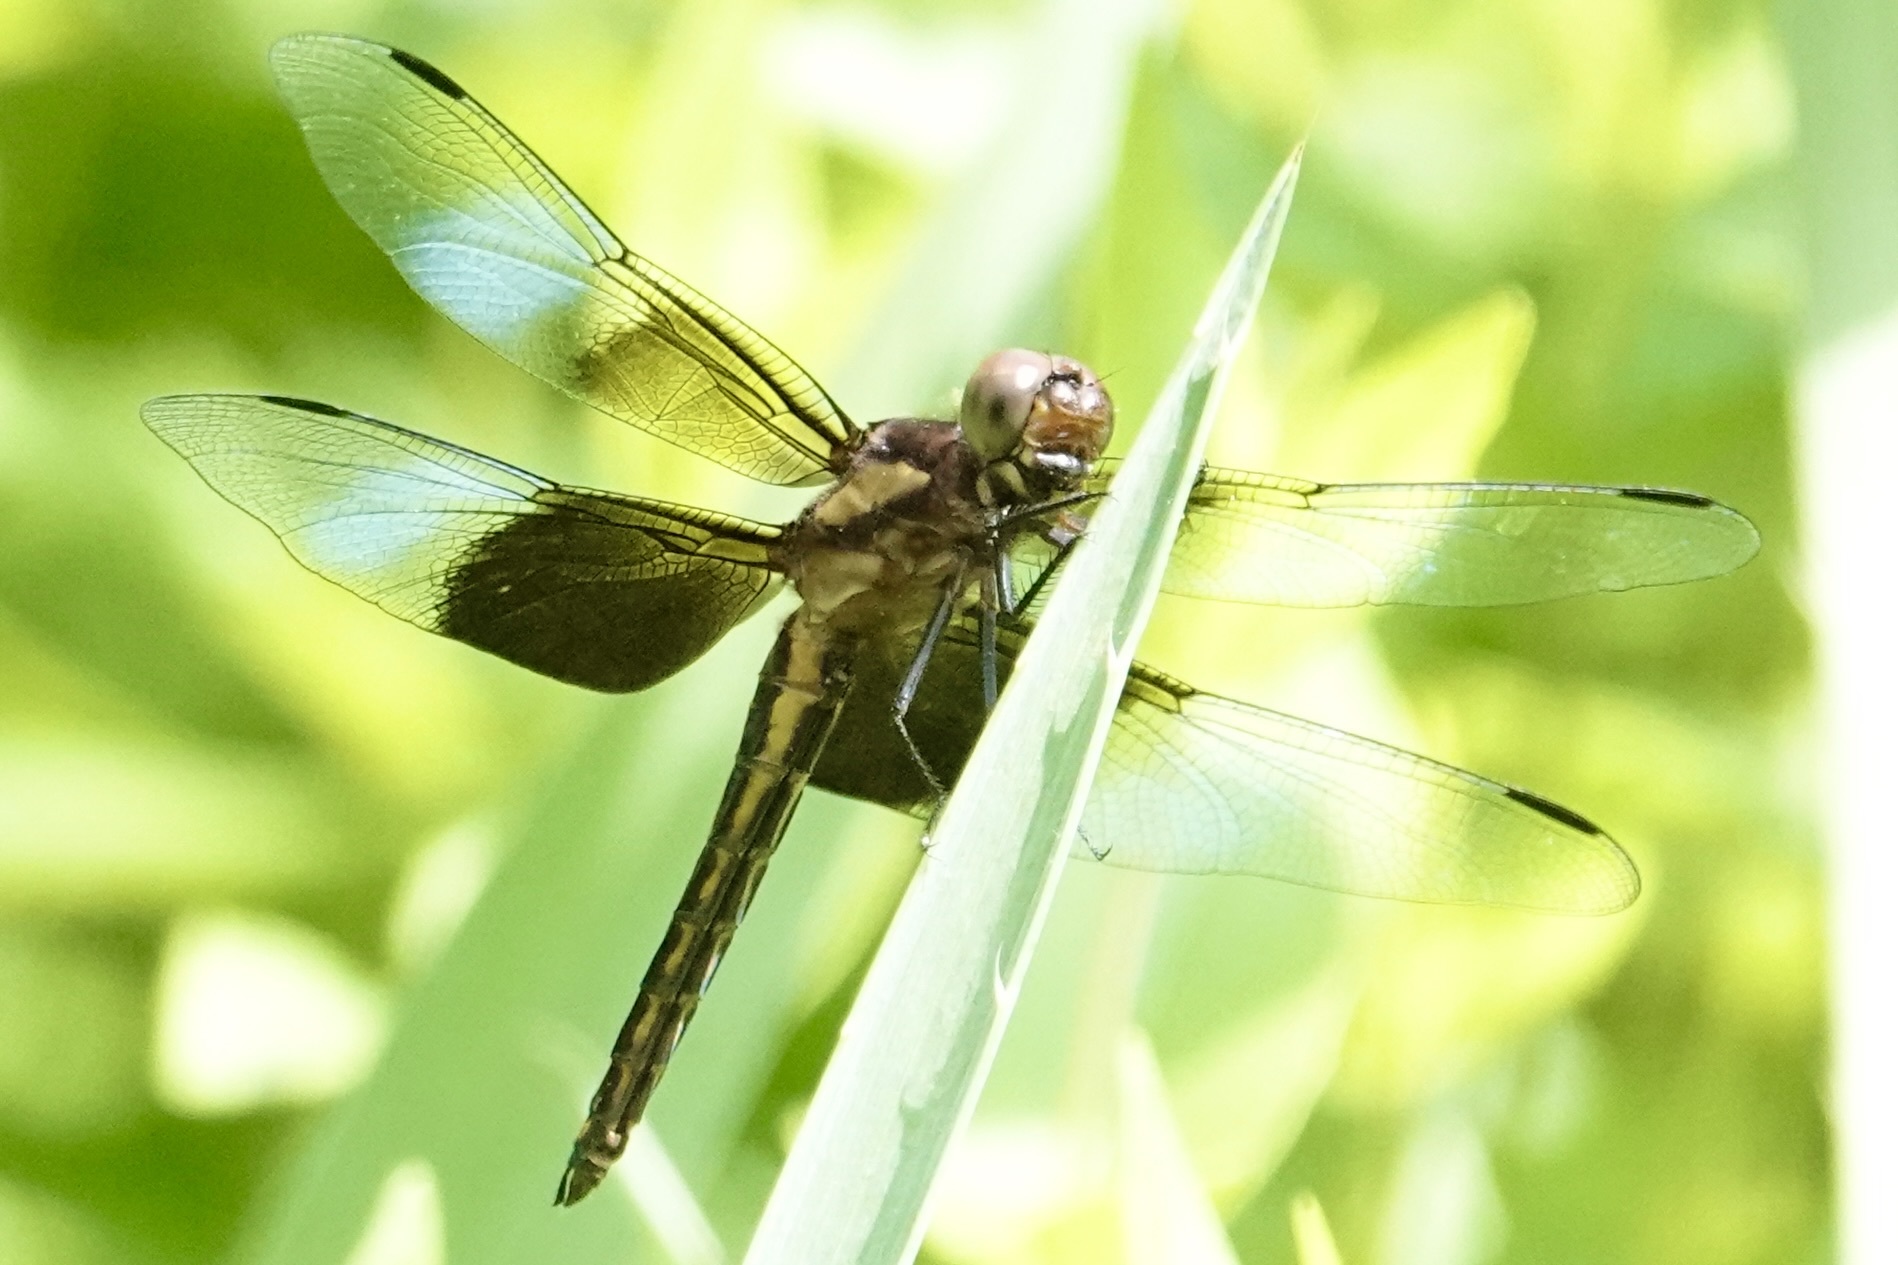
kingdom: Animalia
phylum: Arthropoda
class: Insecta
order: Odonata
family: Libellulidae
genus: Libellula
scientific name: Libellula luctuosa
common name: Widow skimmer
